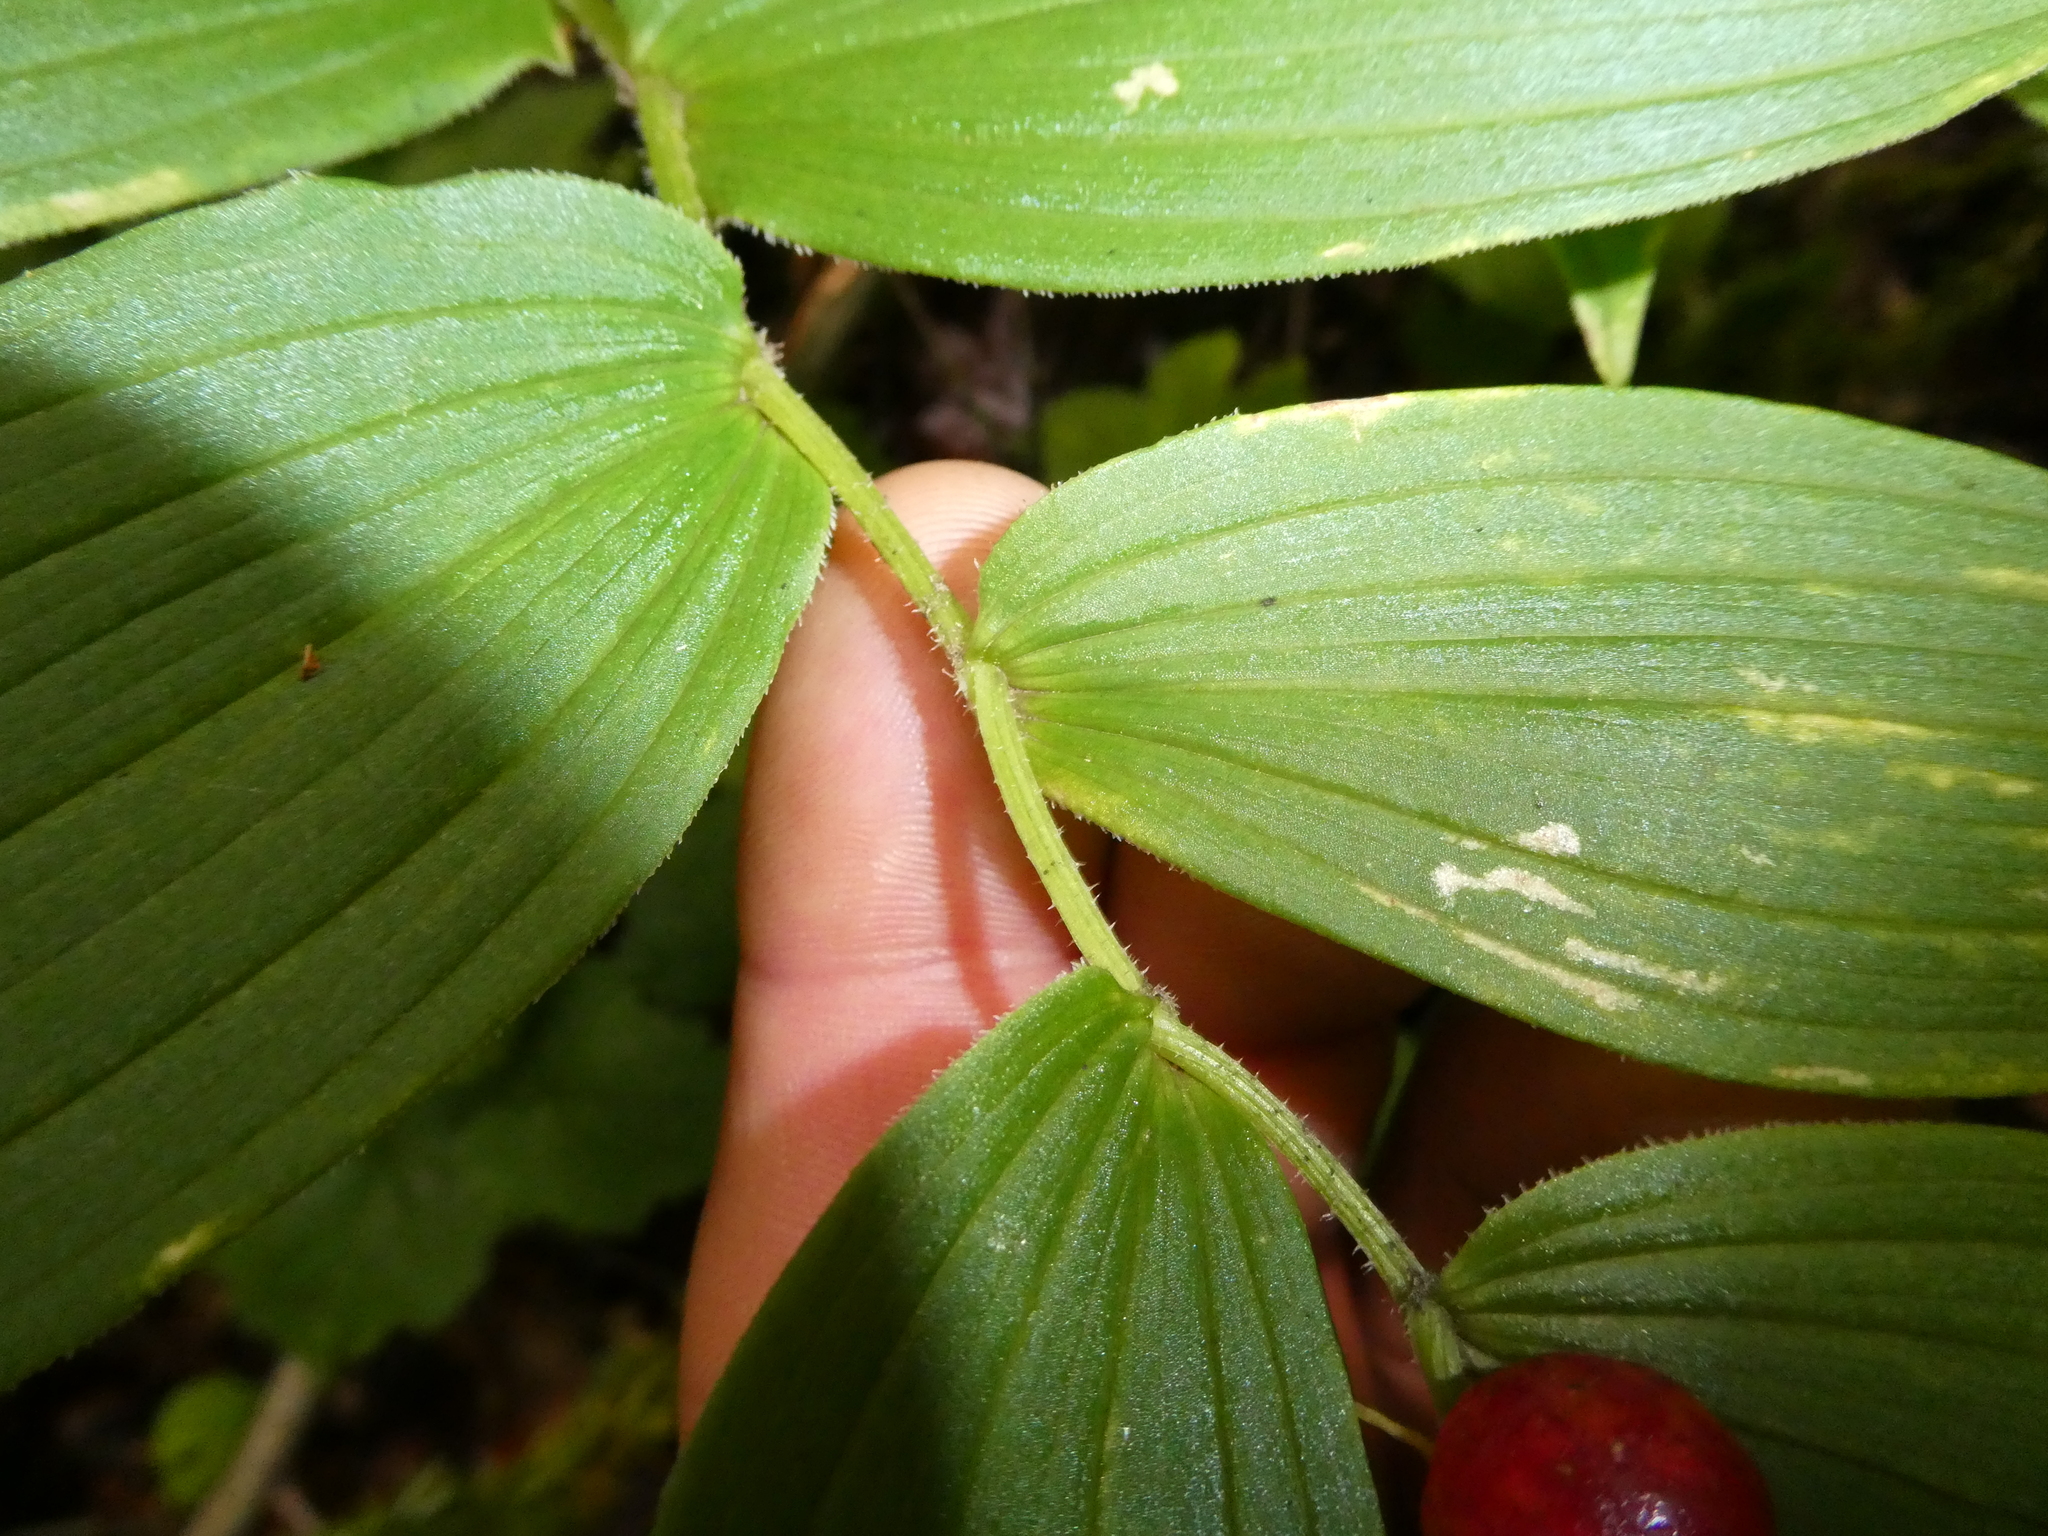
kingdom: Plantae
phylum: Tracheophyta
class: Liliopsida
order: Liliales
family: Liliaceae
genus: Streptopus
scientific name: Streptopus lanceolatus
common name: Rose mandarin
